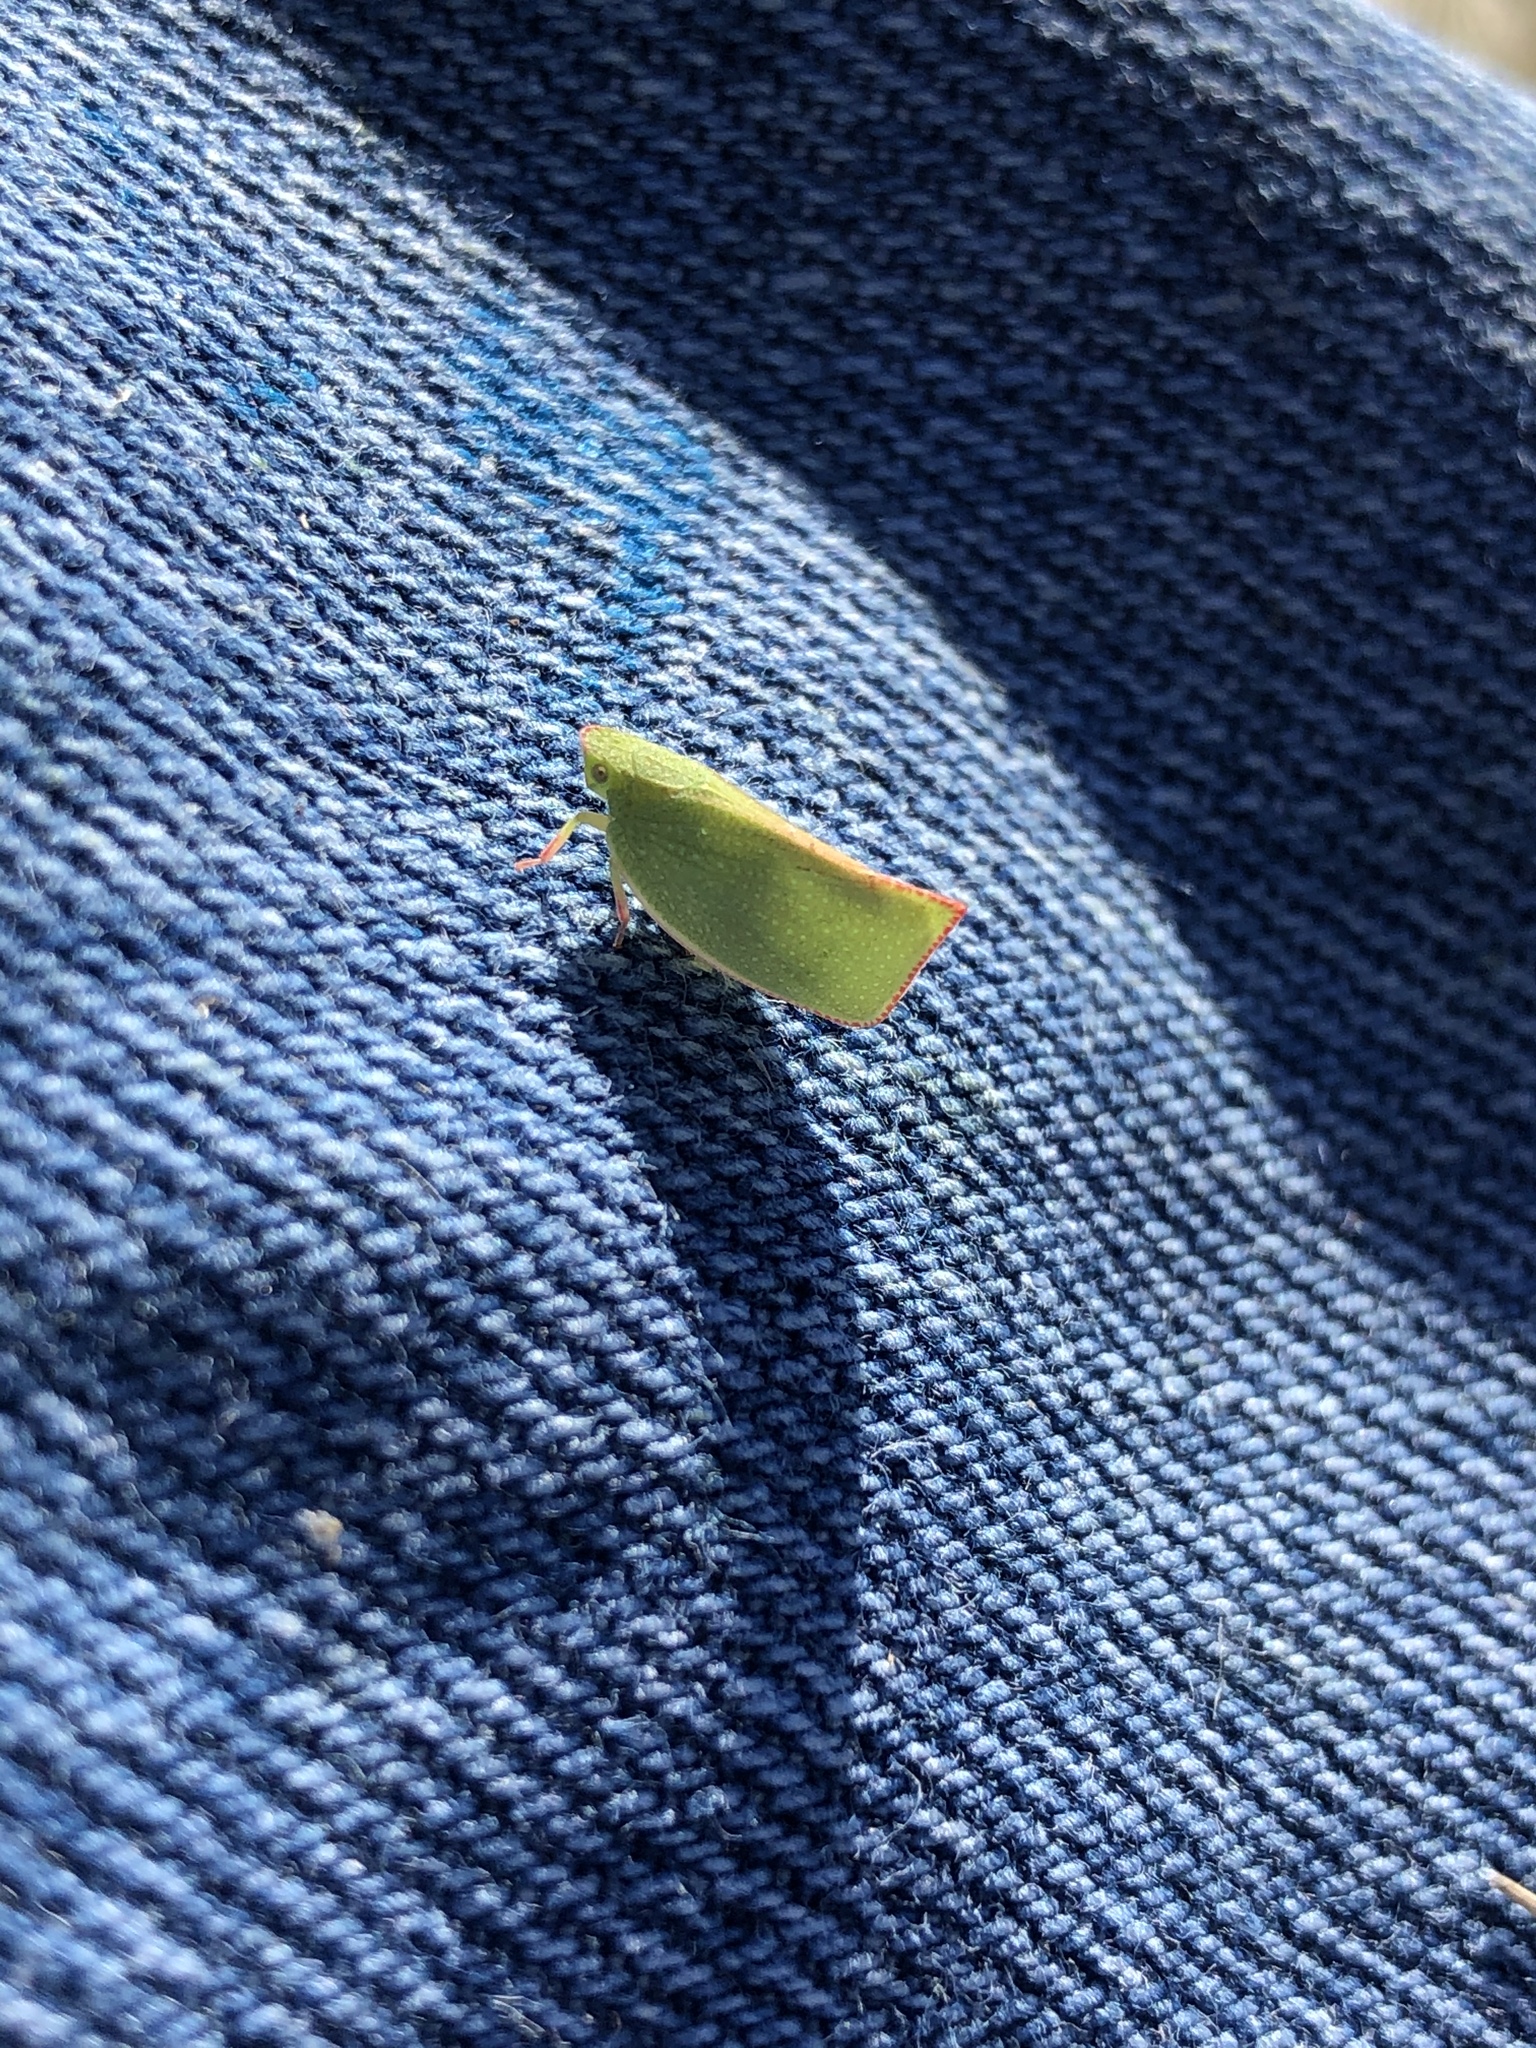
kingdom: Animalia
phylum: Arthropoda
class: Insecta
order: Hemiptera
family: Flatidae
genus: Siphanta
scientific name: Siphanta acuta
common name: Torpedo bug
